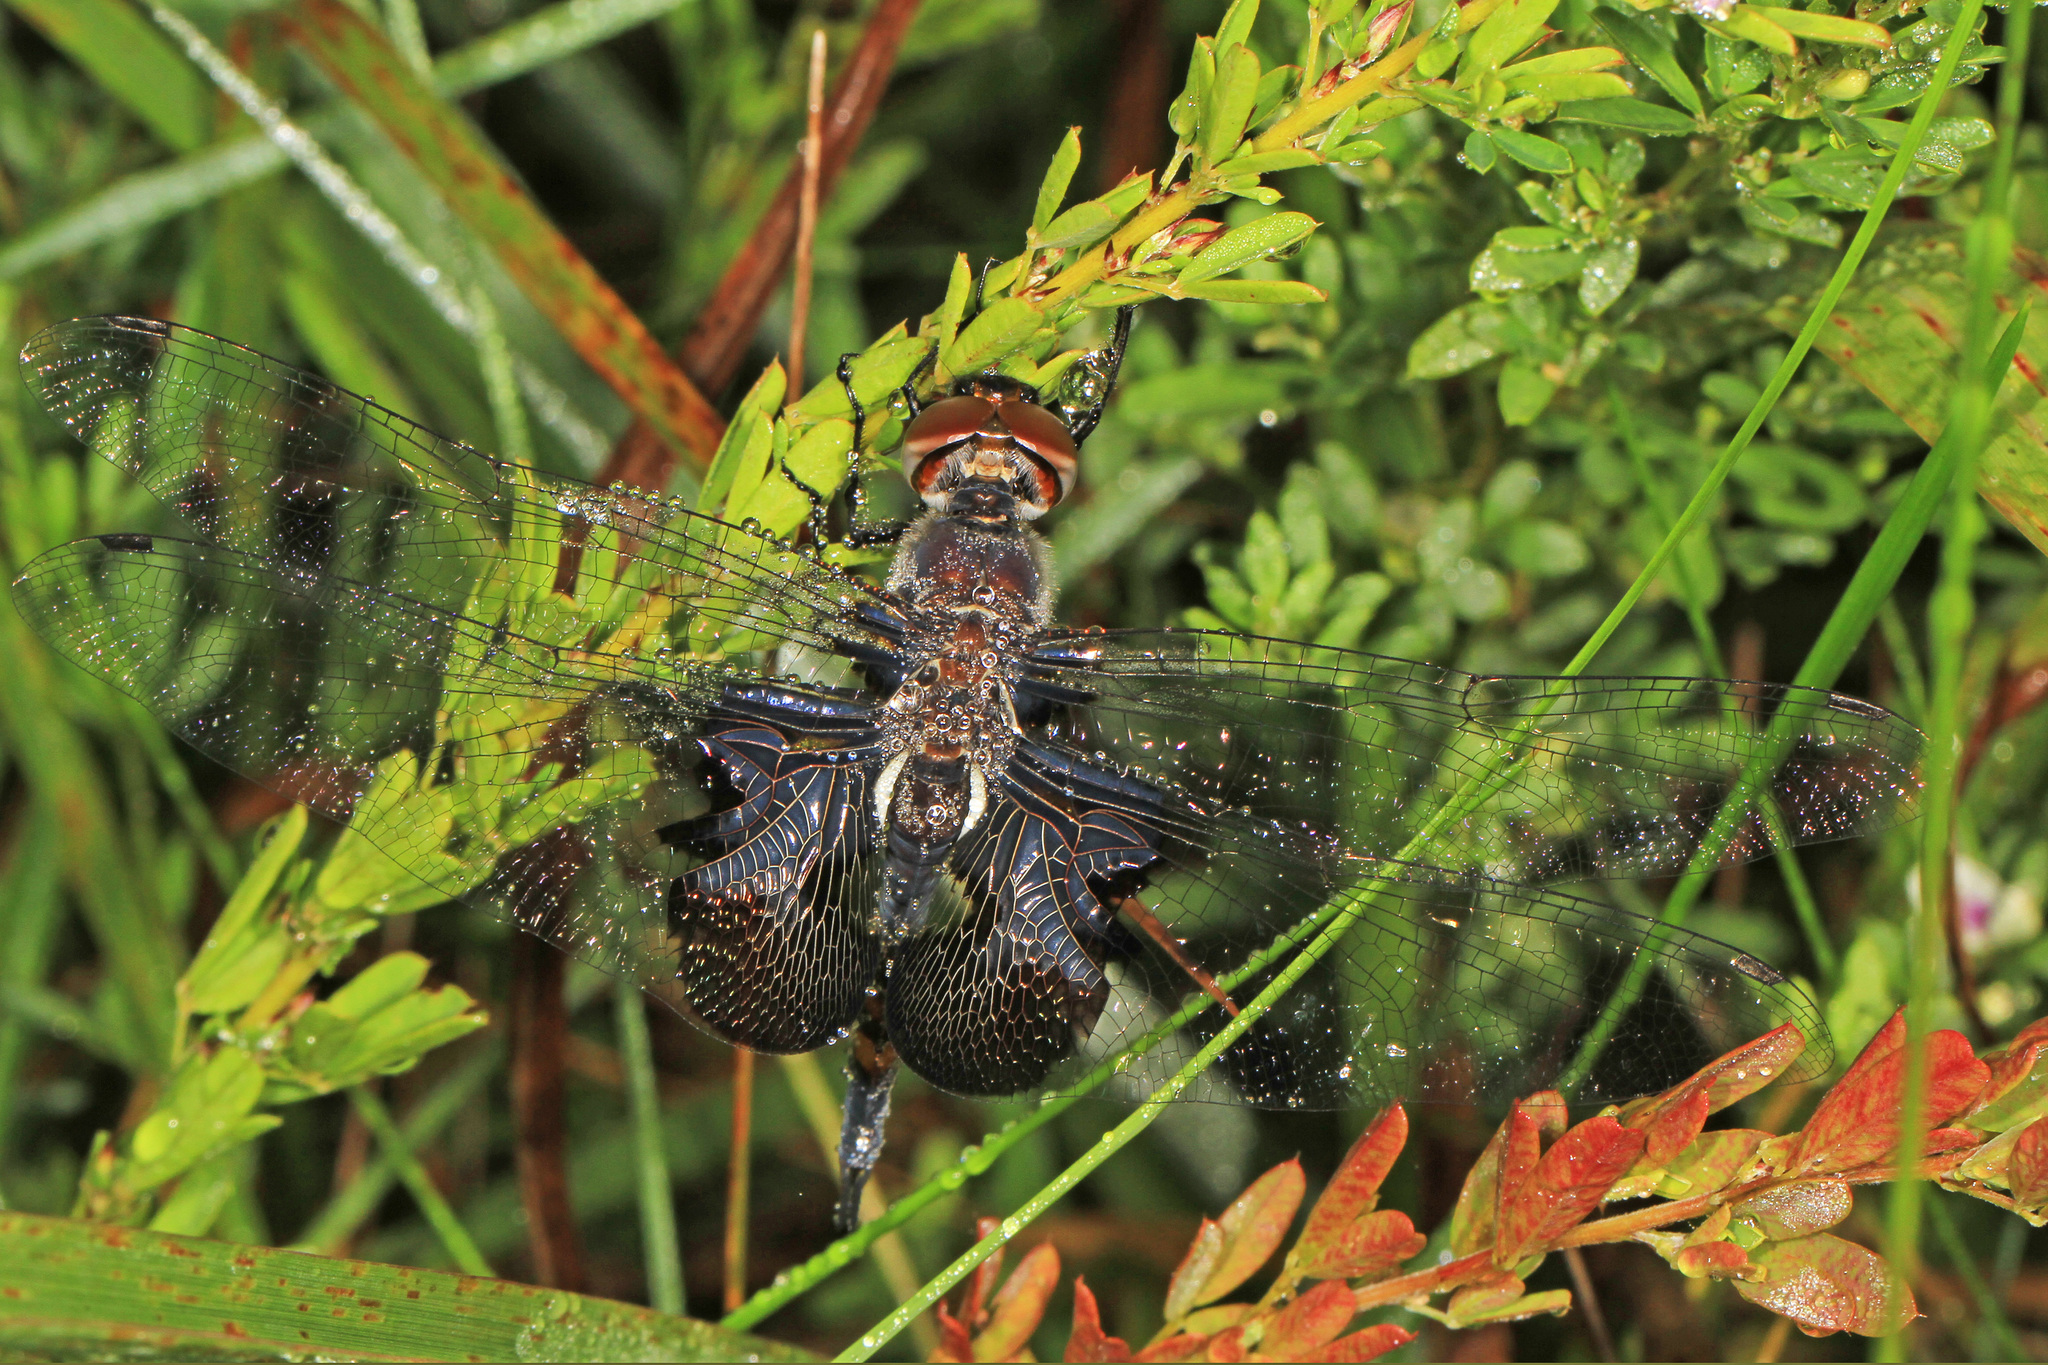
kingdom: Animalia
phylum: Arthropoda
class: Insecta
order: Odonata
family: Libellulidae
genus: Tramea
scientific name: Tramea lacerata
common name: Black saddlebags
